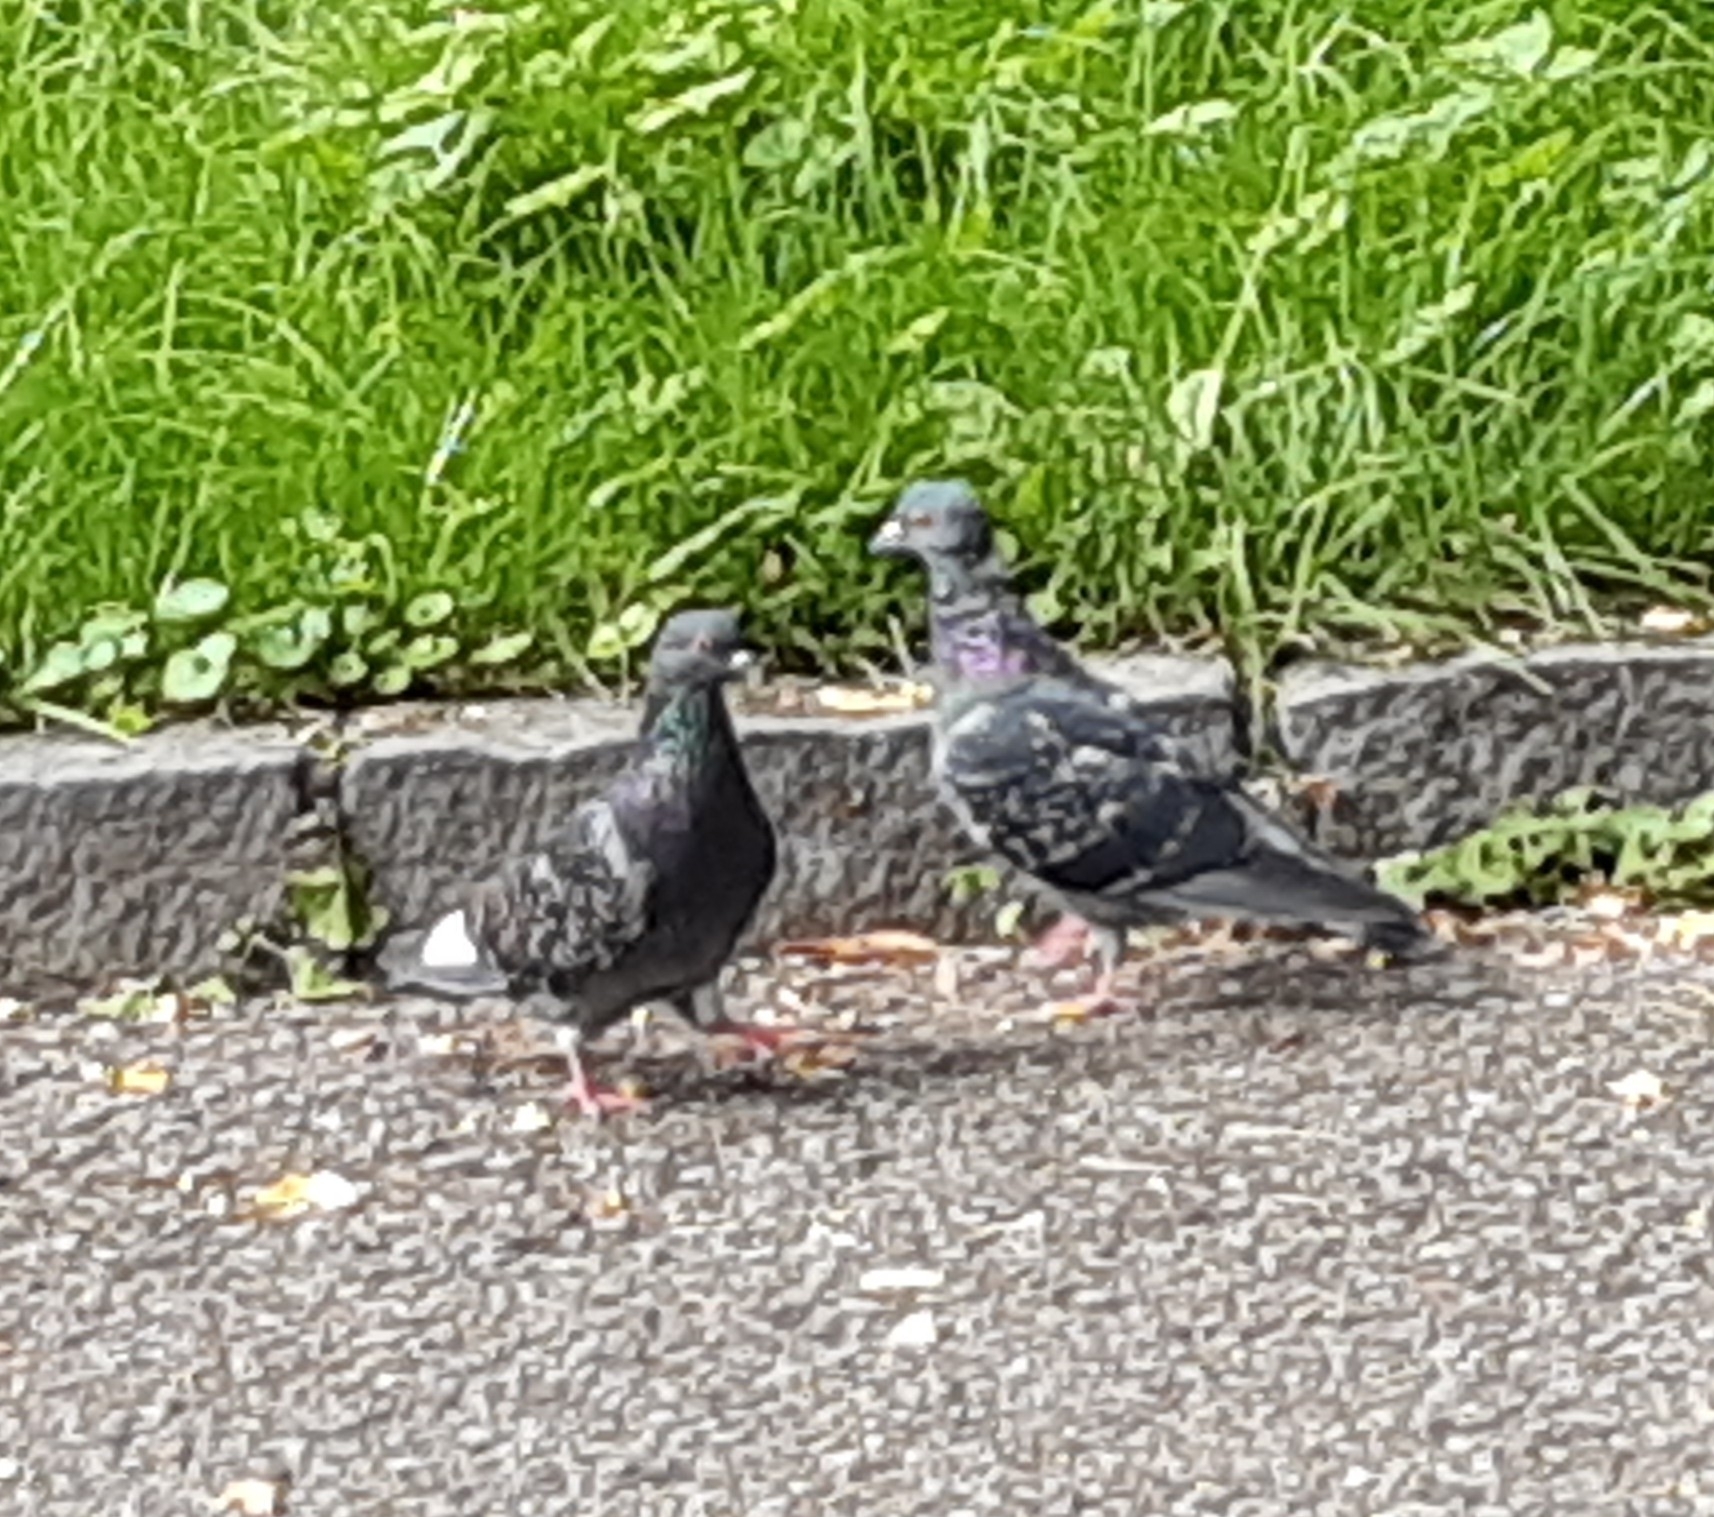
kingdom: Animalia
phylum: Chordata
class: Aves
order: Columbiformes
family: Columbidae
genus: Columba
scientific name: Columba livia
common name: Rock pigeon
